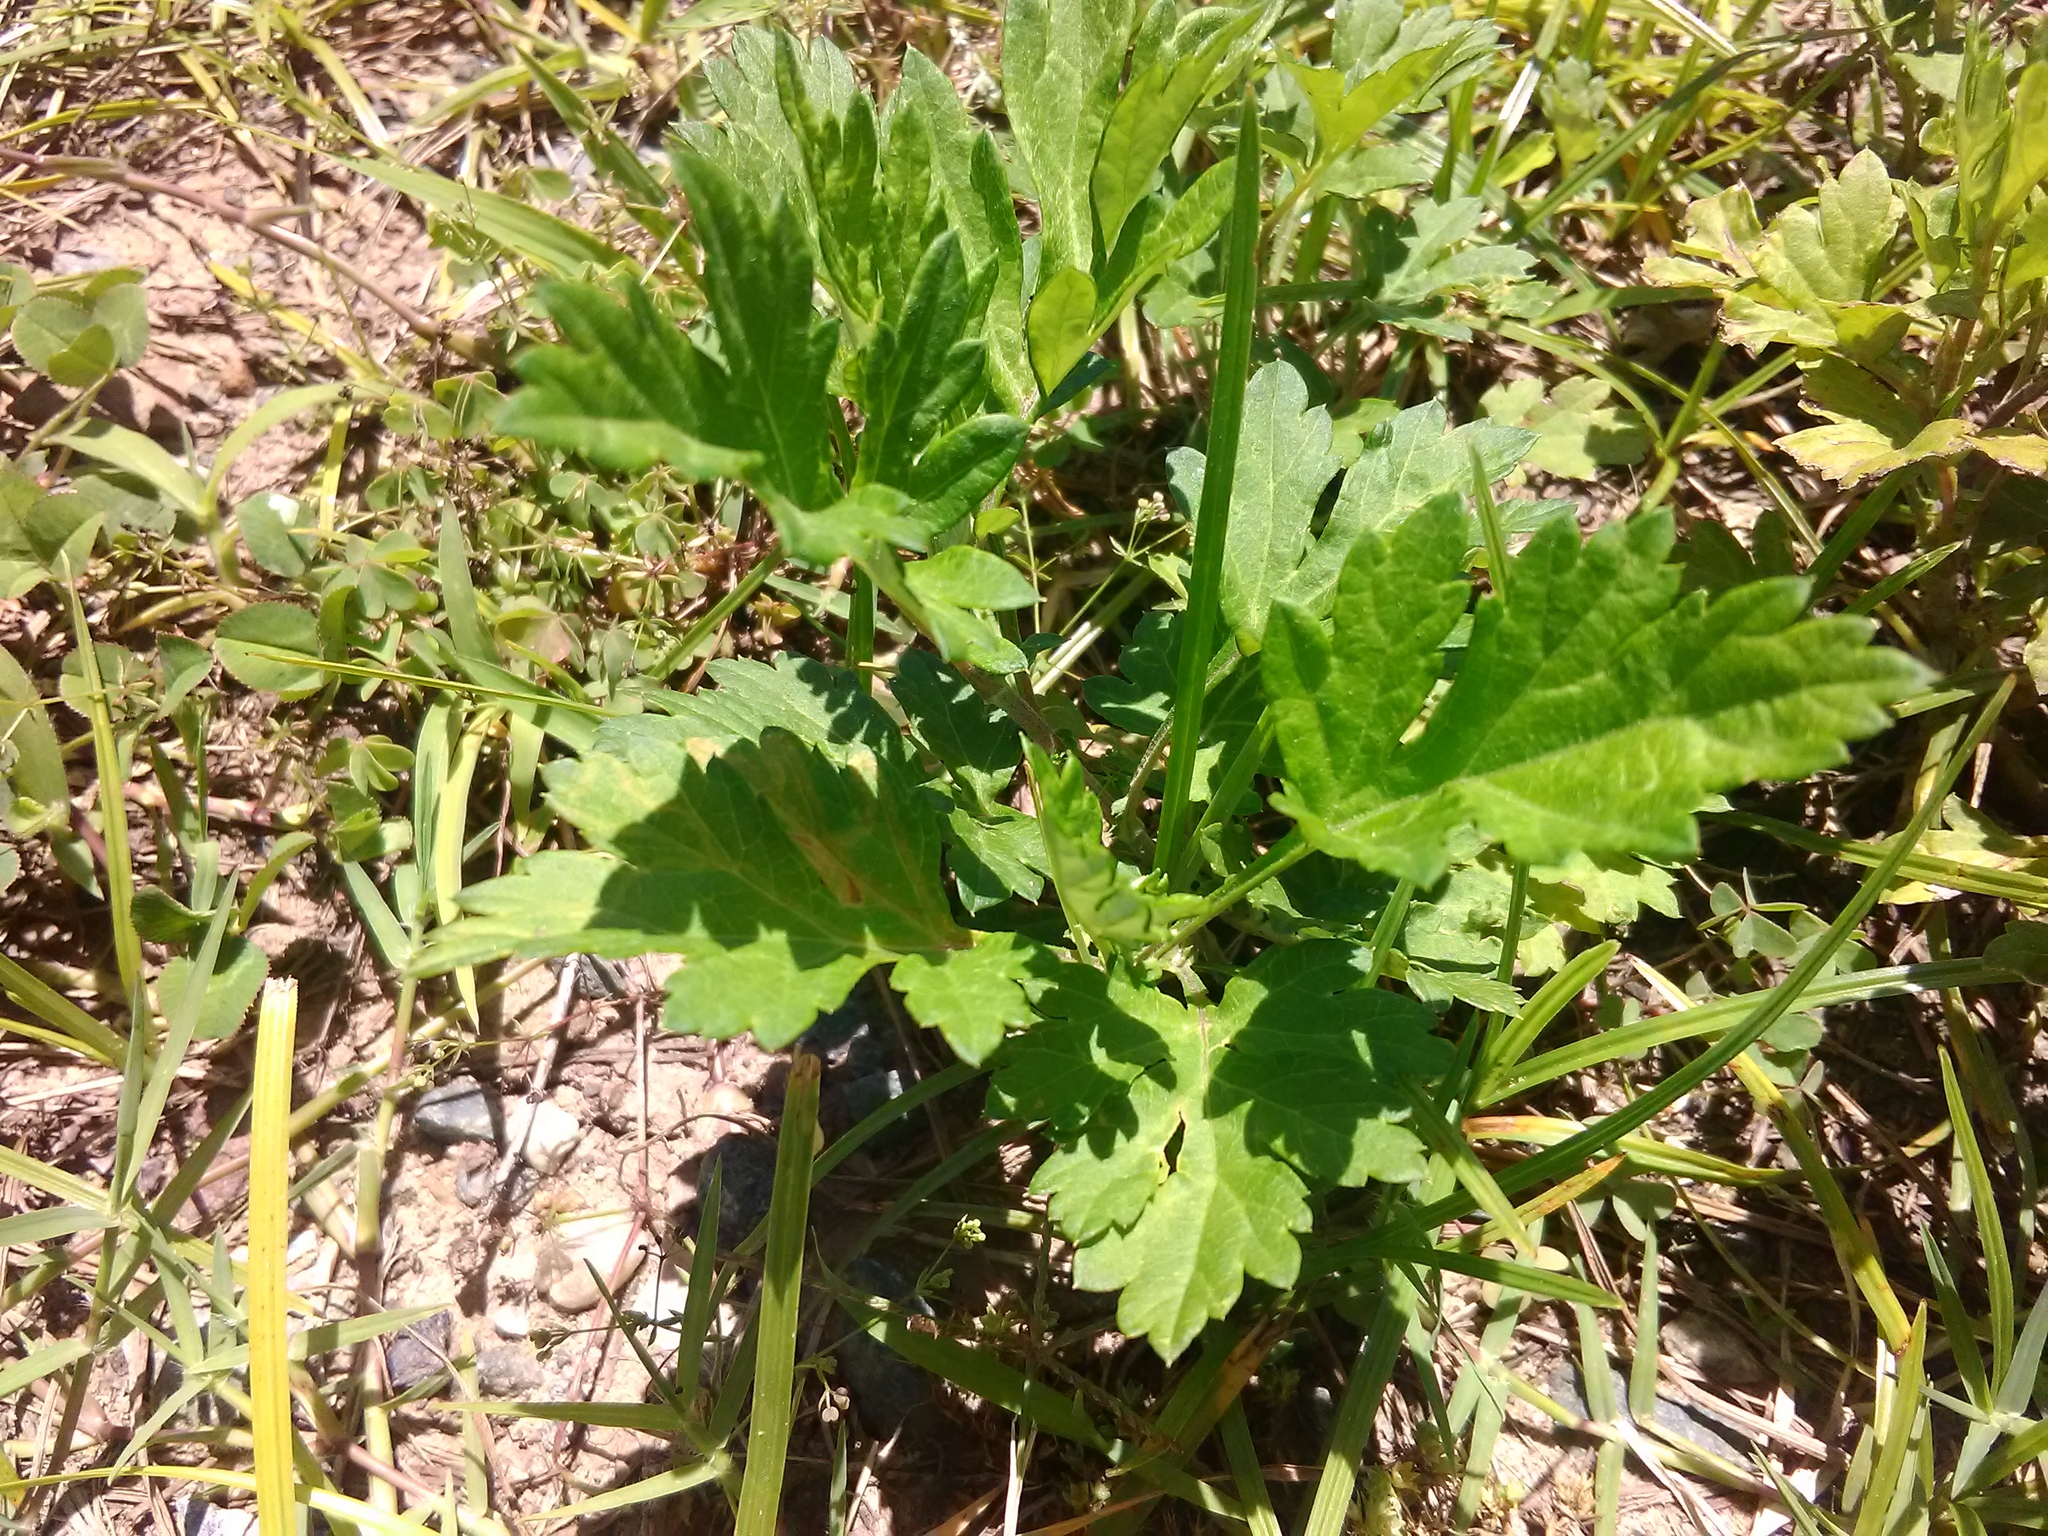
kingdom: Plantae
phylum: Tracheophyta
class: Magnoliopsida
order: Asterales
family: Asteraceae
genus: Artemisia
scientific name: Artemisia vulgaris
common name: Mugwort
